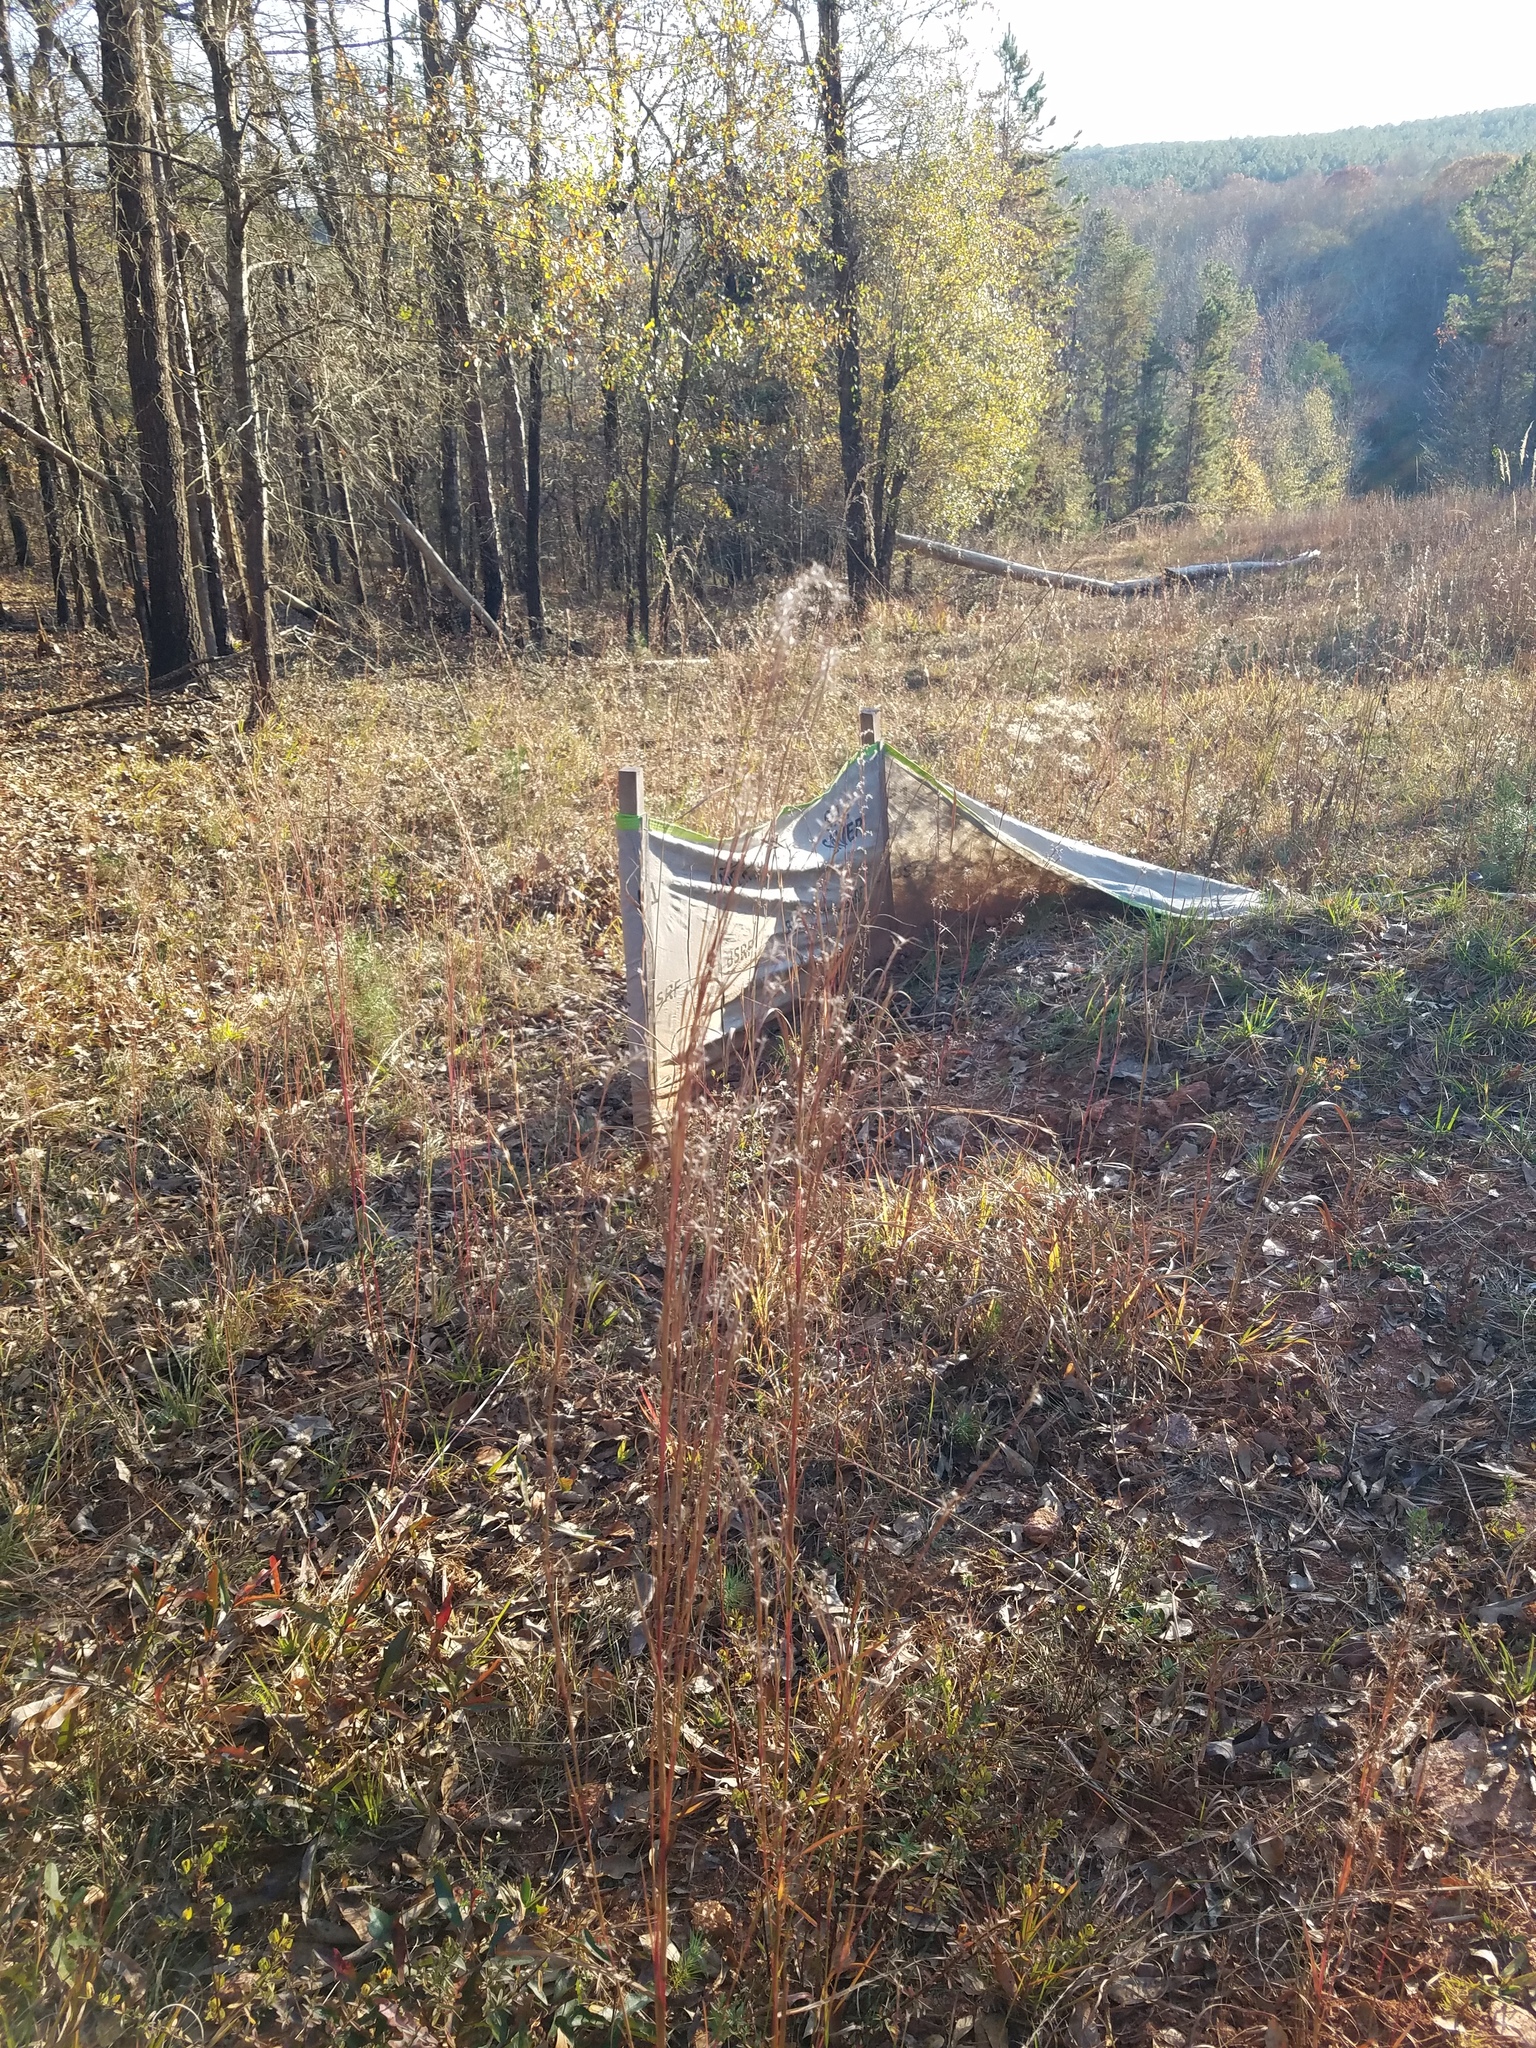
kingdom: Plantae
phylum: Tracheophyta
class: Liliopsida
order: Poales
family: Poaceae
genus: Schizachyrium
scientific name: Schizachyrium scoparium
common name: Little bluestem
